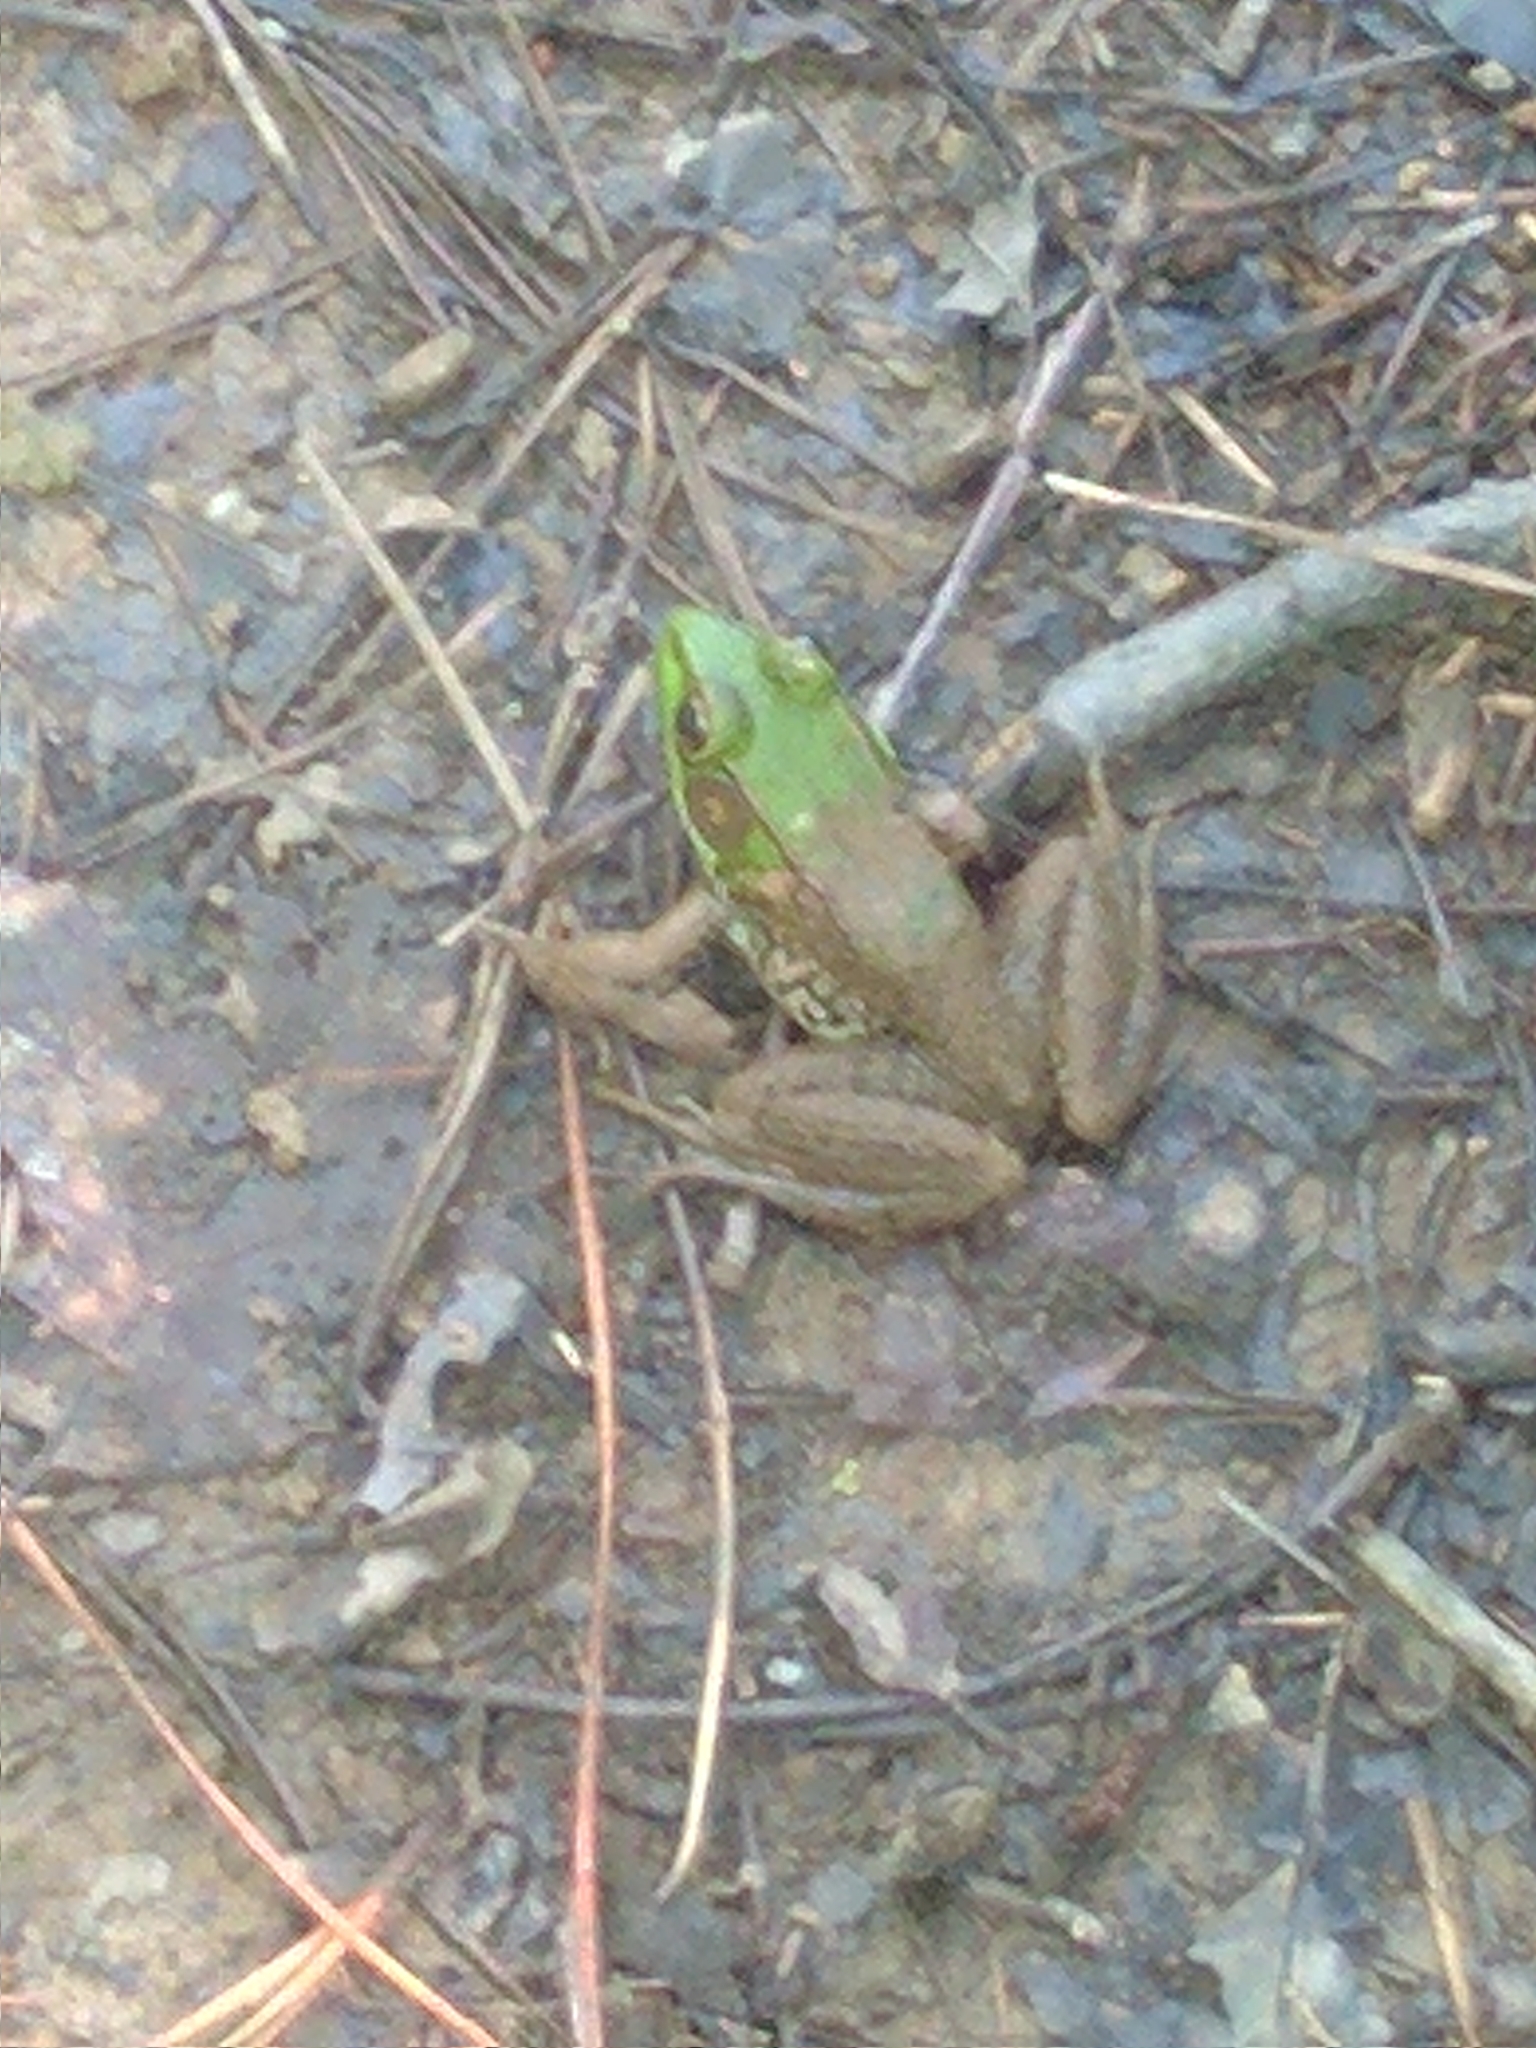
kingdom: Animalia
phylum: Chordata
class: Amphibia
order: Anura
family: Ranidae
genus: Lithobates
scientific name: Lithobates clamitans
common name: Green frog
